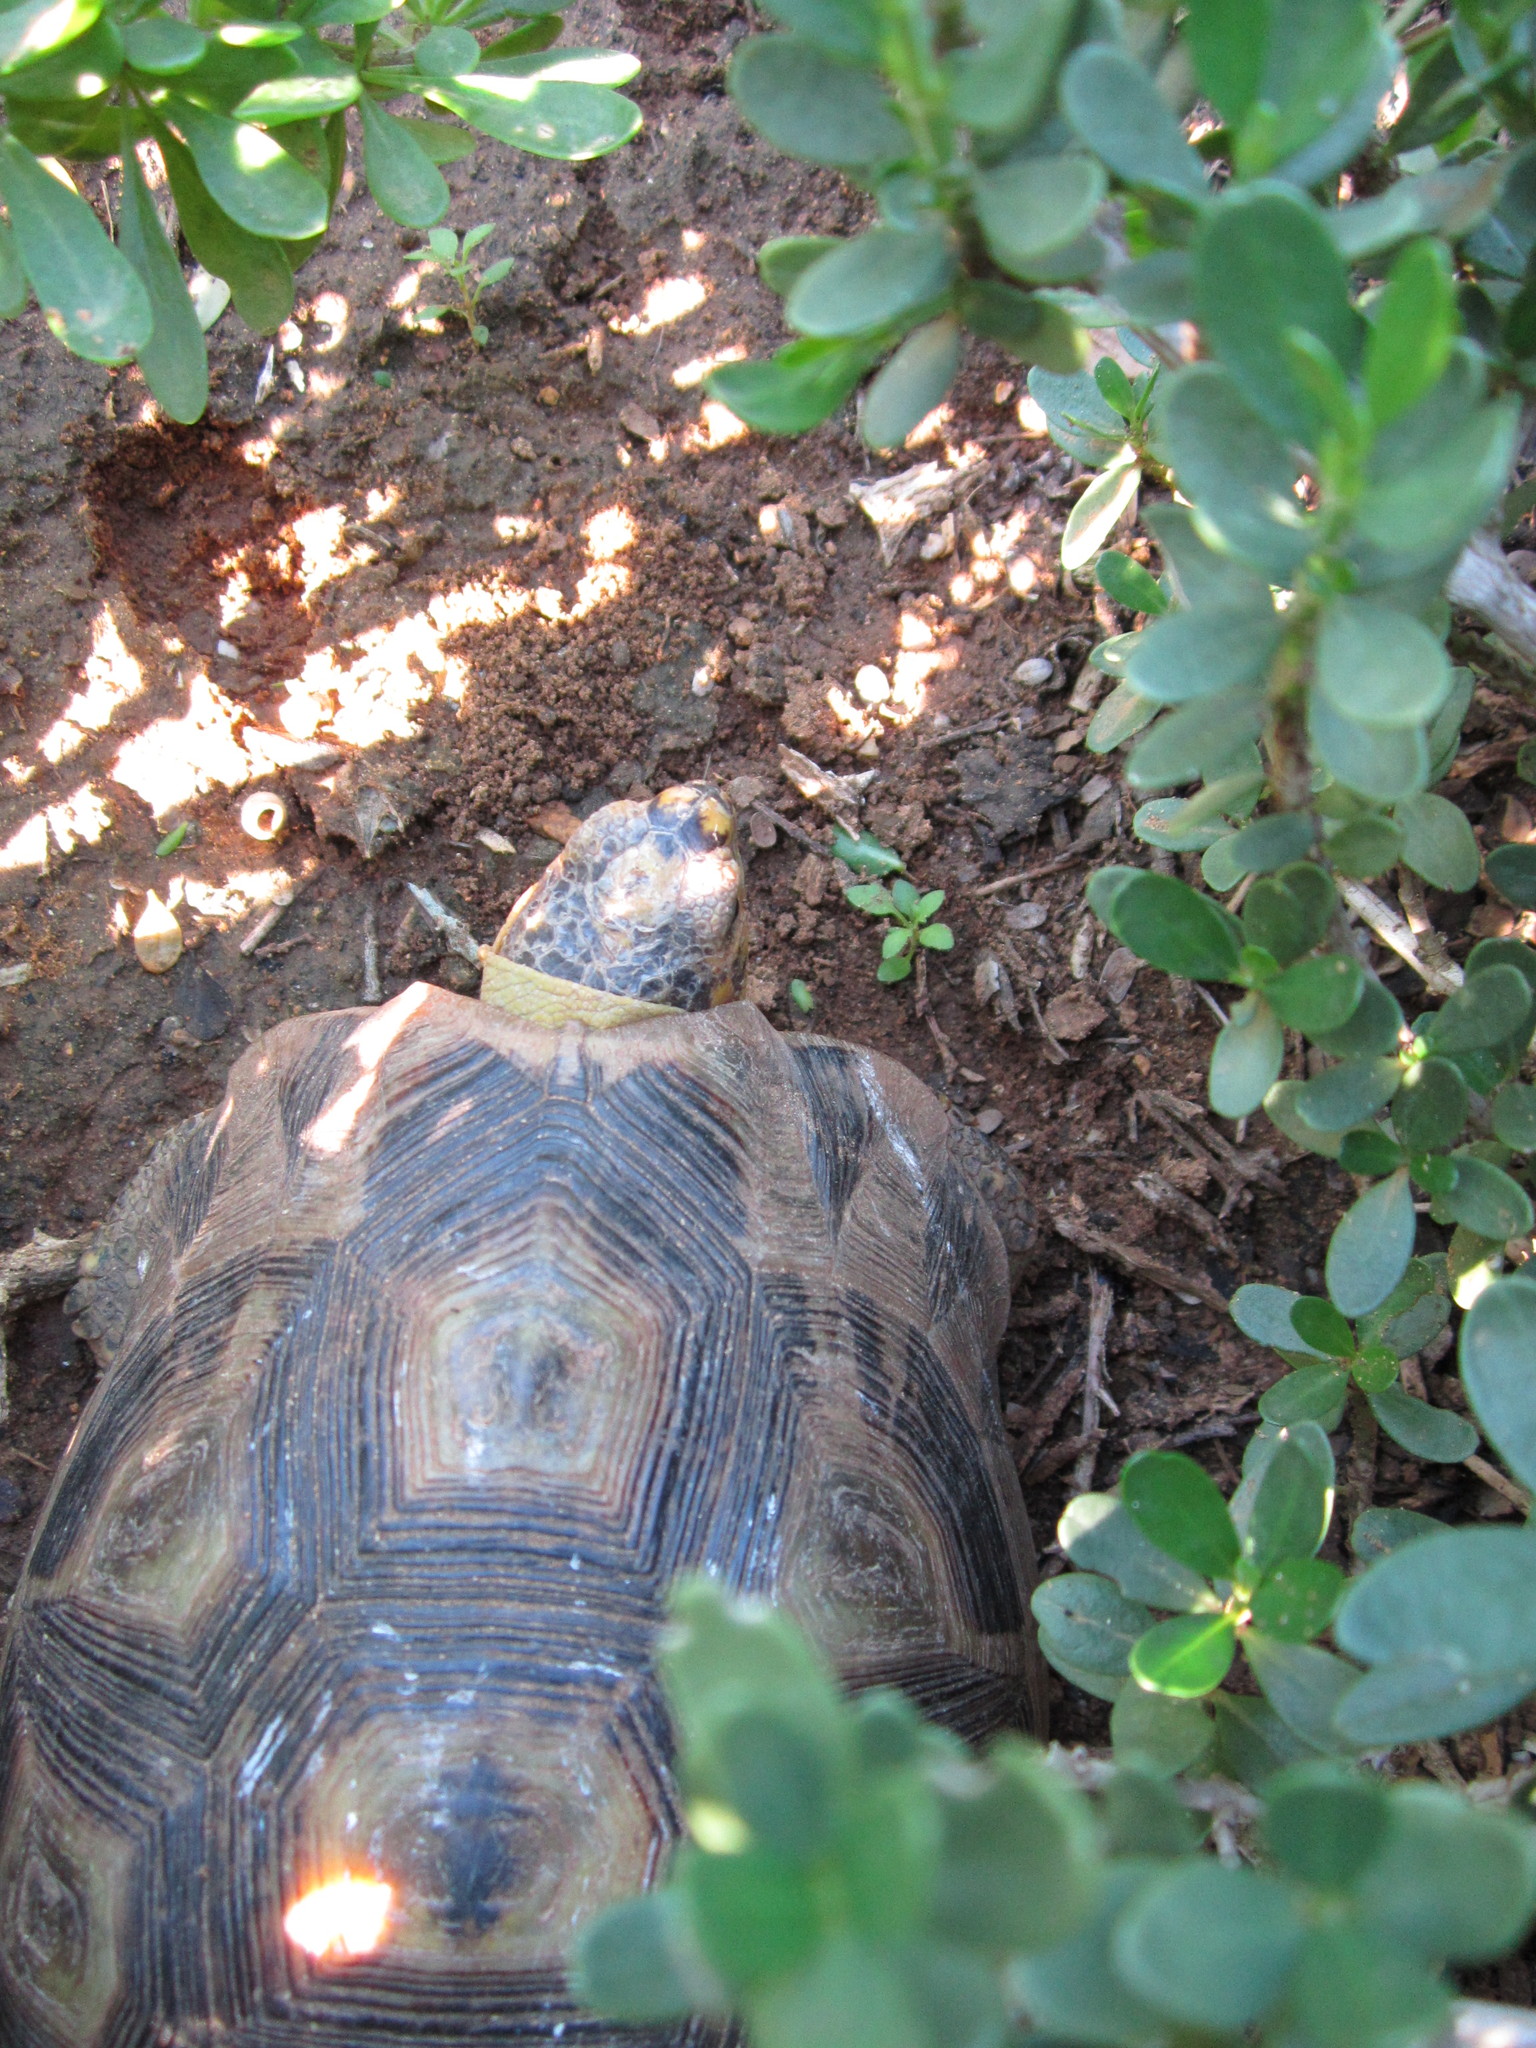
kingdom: Animalia
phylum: Chordata
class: Testudines
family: Testudinidae
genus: Chersina
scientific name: Chersina angulata
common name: South african bowsprit tortoise
